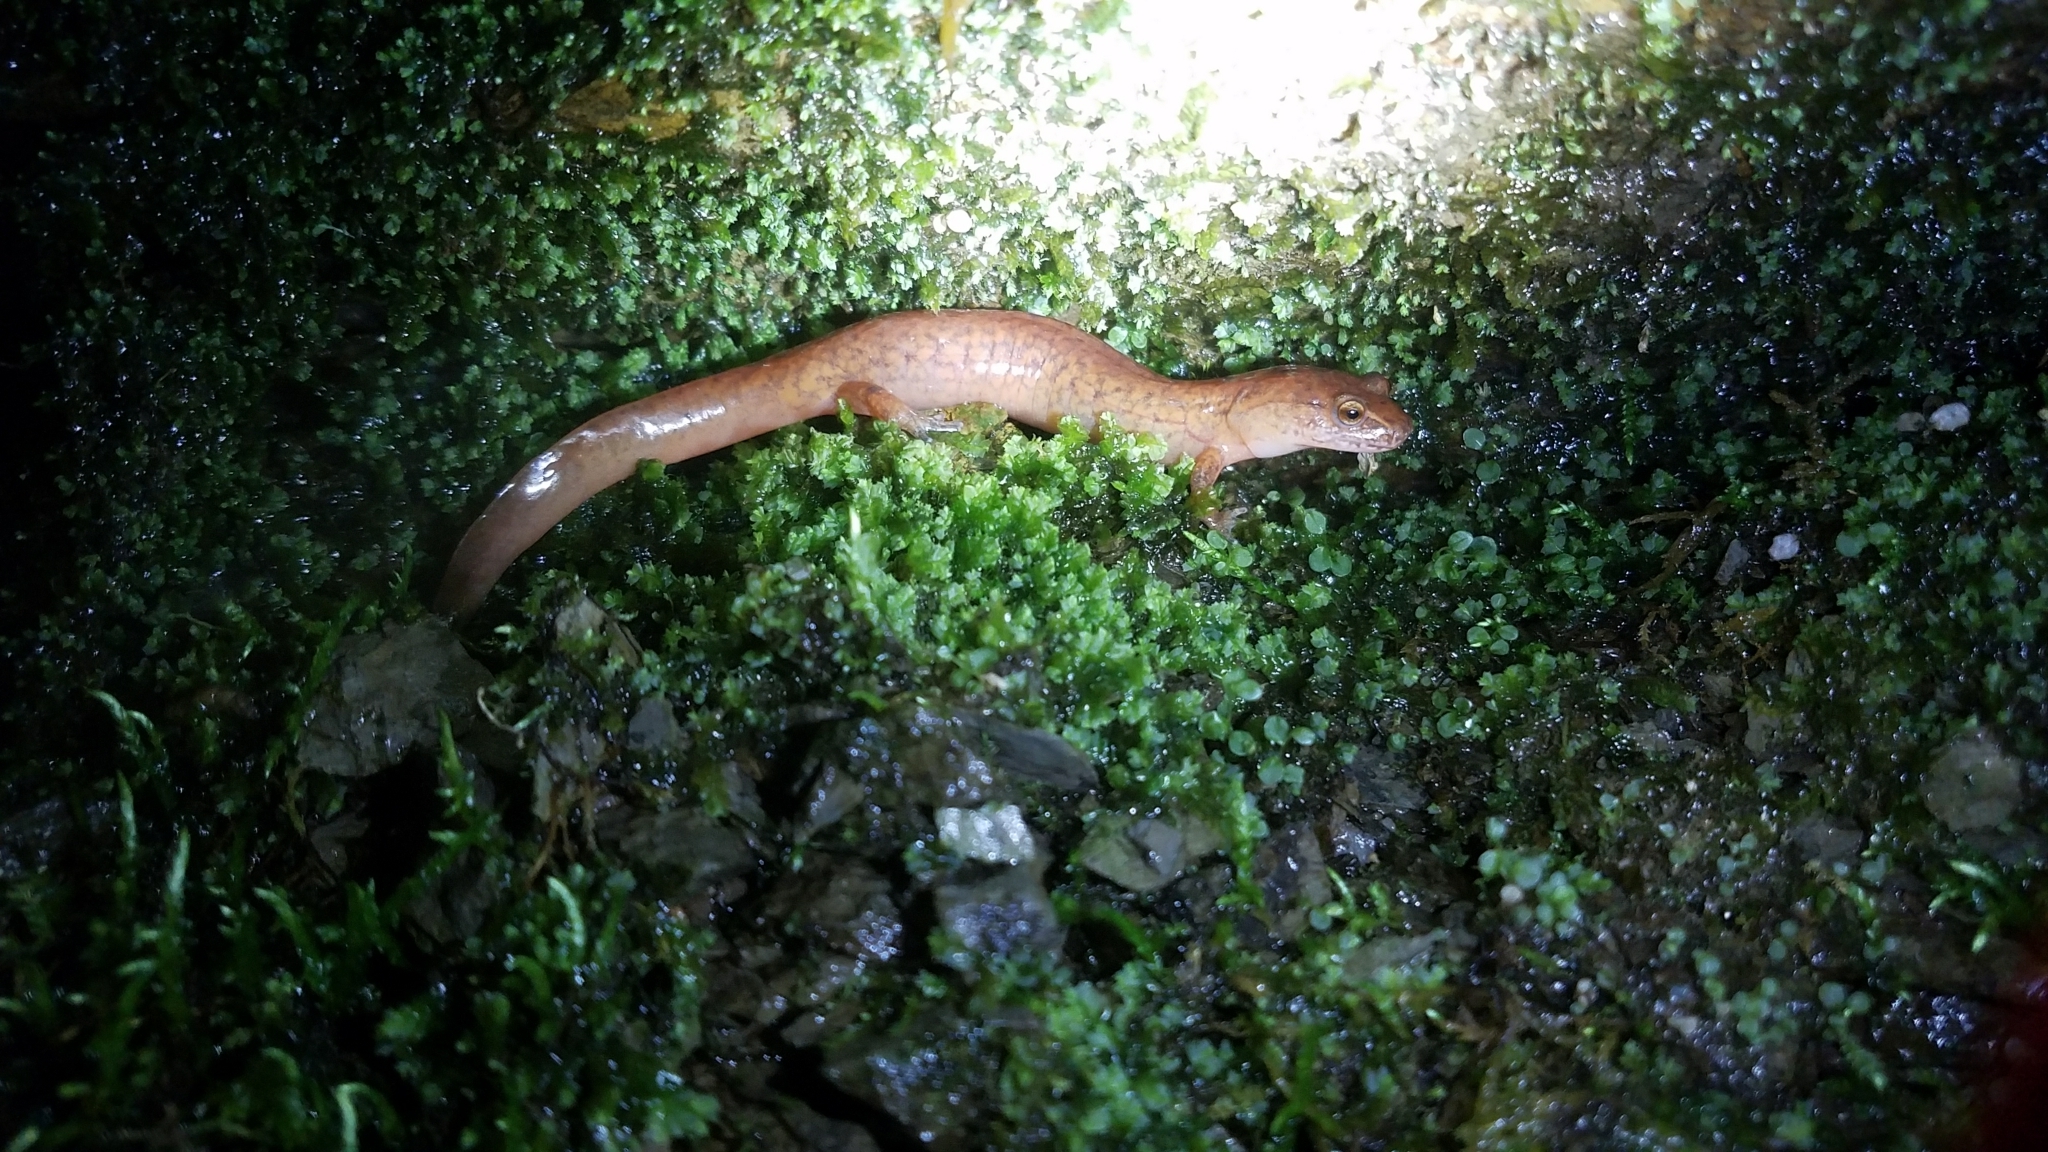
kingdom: Animalia
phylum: Chordata
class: Amphibia
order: Caudata
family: Plethodontidae
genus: Gyrinophilus
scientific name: Gyrinophilus porphyriticus
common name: Spring salamander
